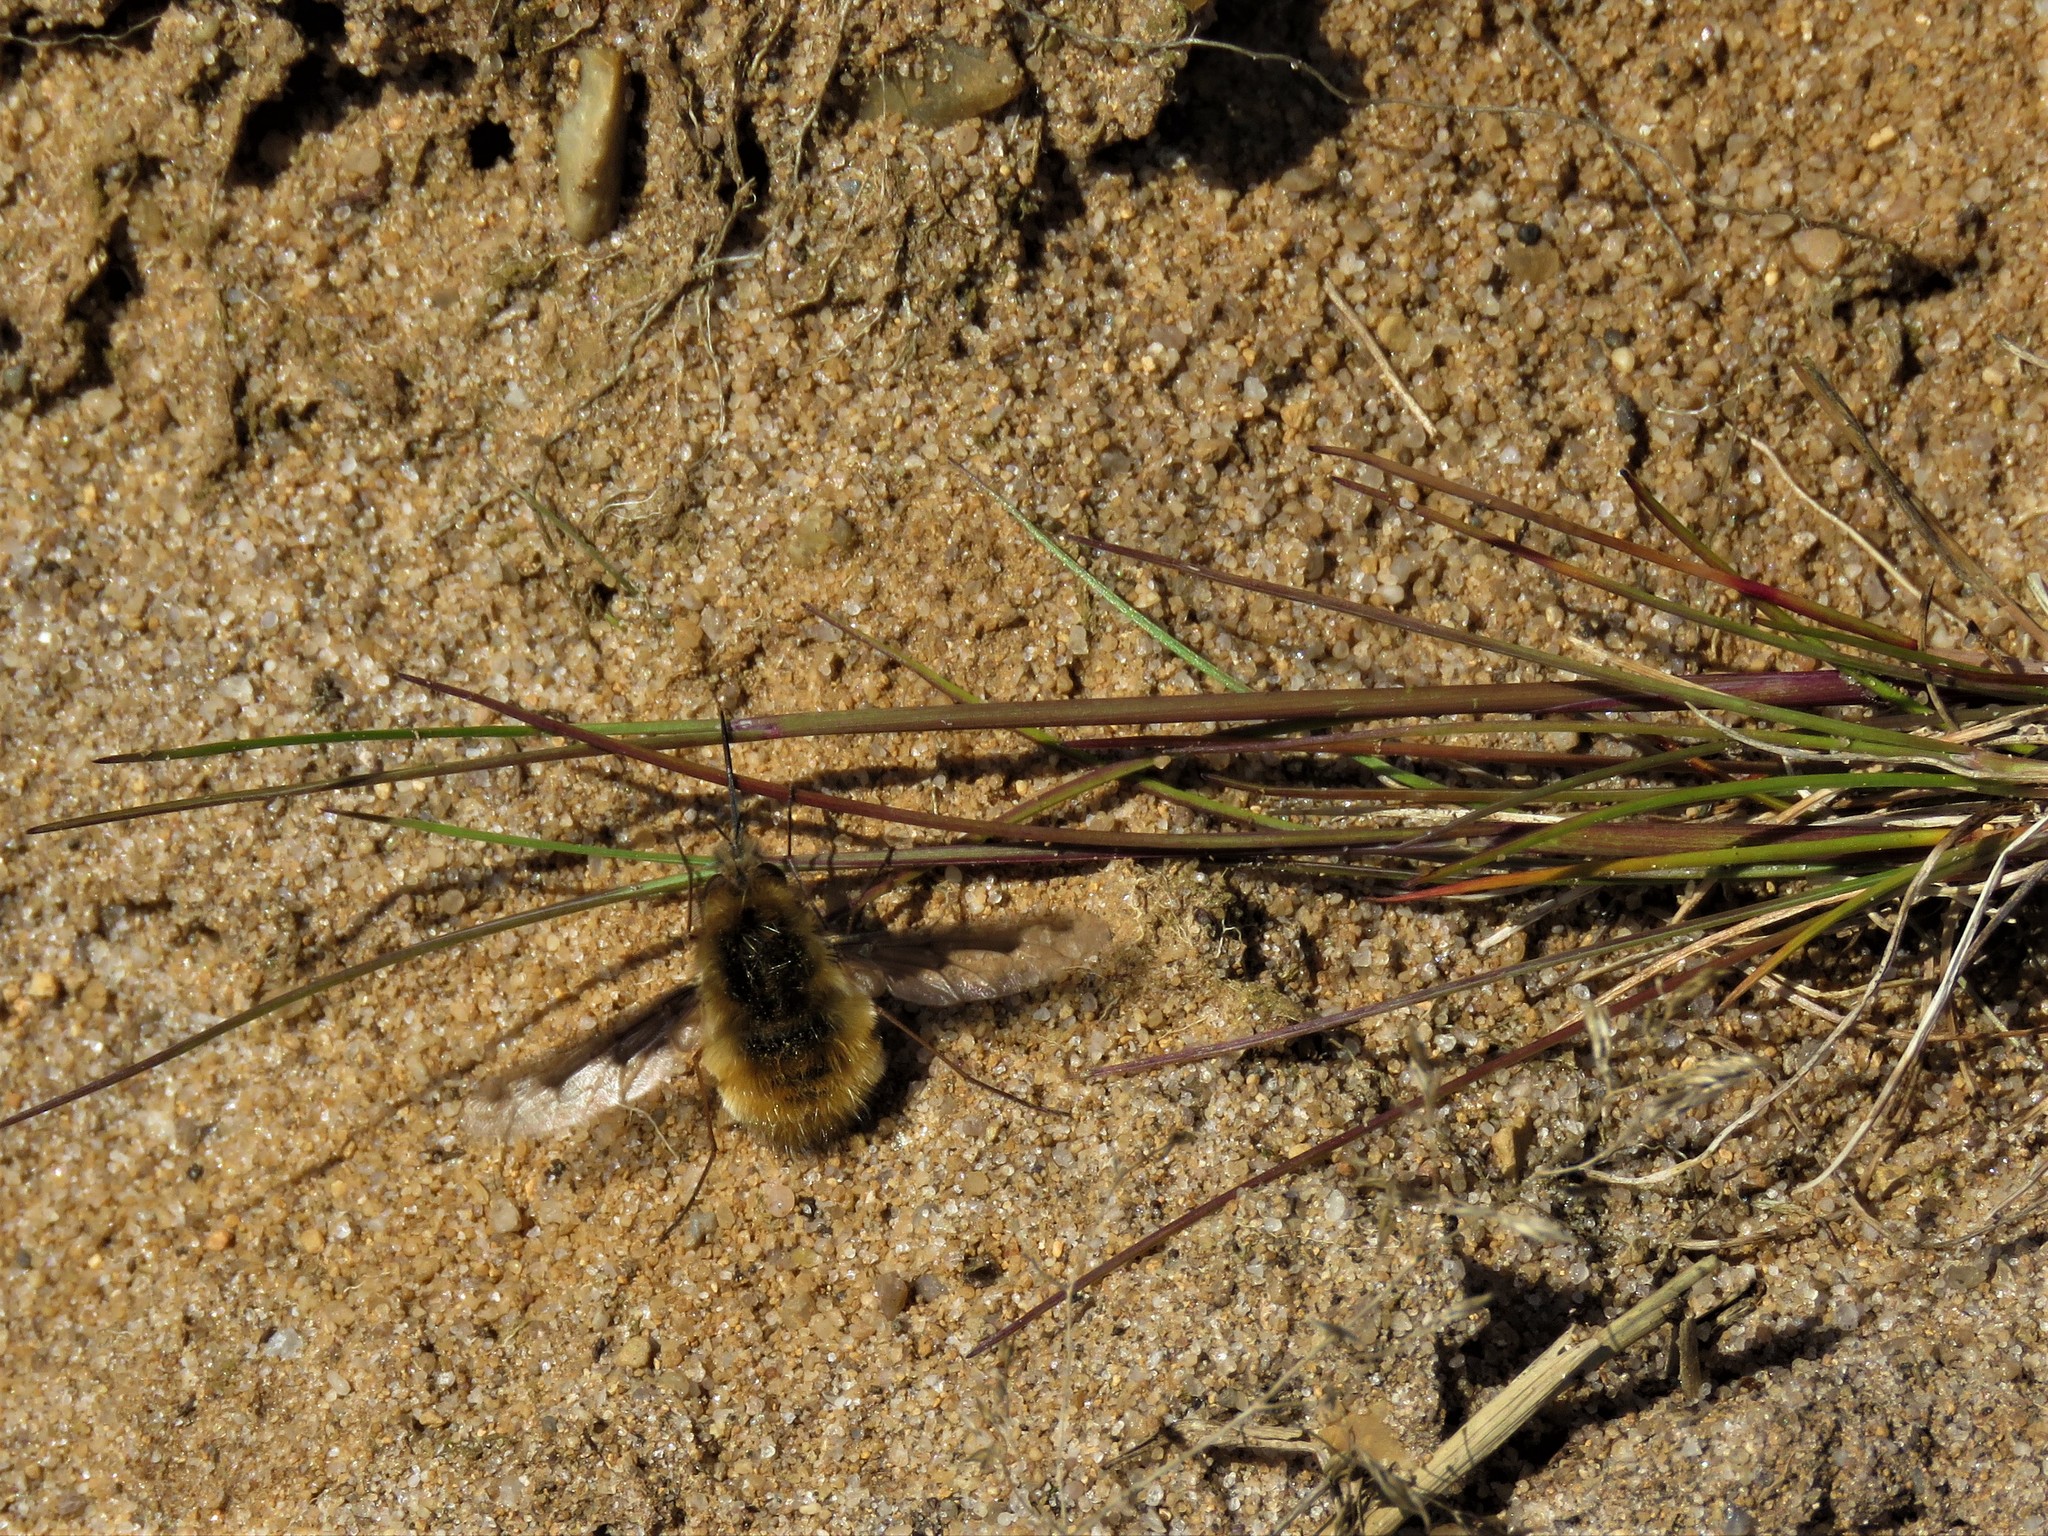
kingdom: Animalia
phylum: Arthropoda
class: Insecta
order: Diptera
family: Bombyliidae
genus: Bombylius
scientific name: Bombylius major
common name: Bee fly
